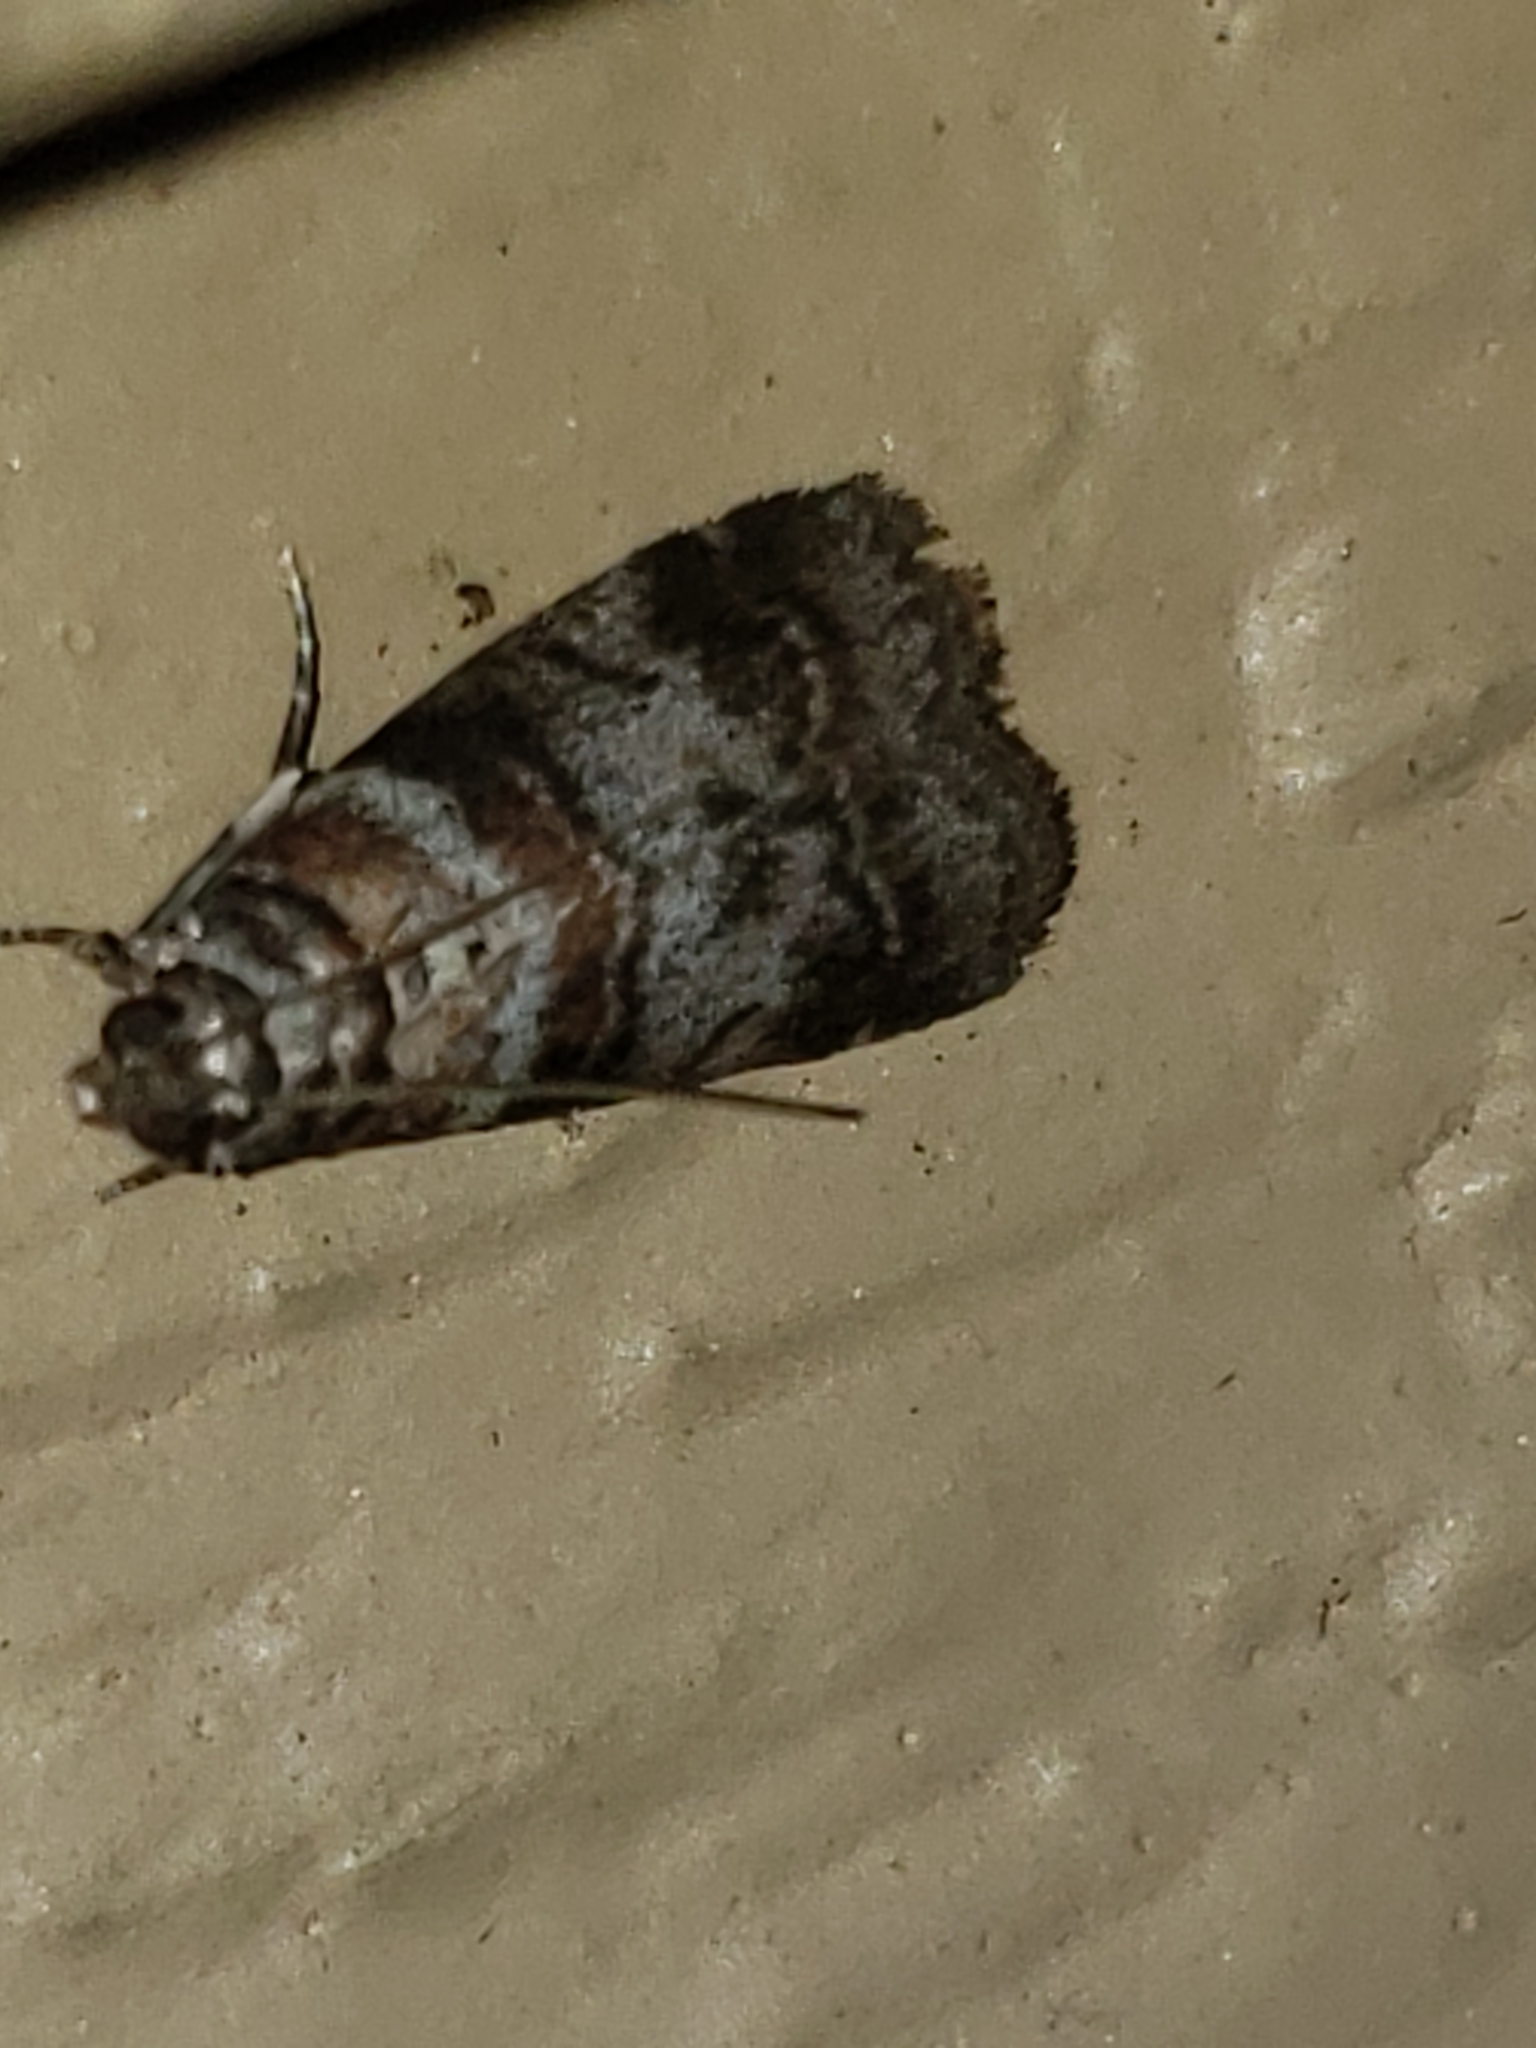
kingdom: Animalia
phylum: Arthropoda
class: Insecta
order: Lepidoptera
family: Pyralidae
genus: Sciota
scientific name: Sciota uvinella
